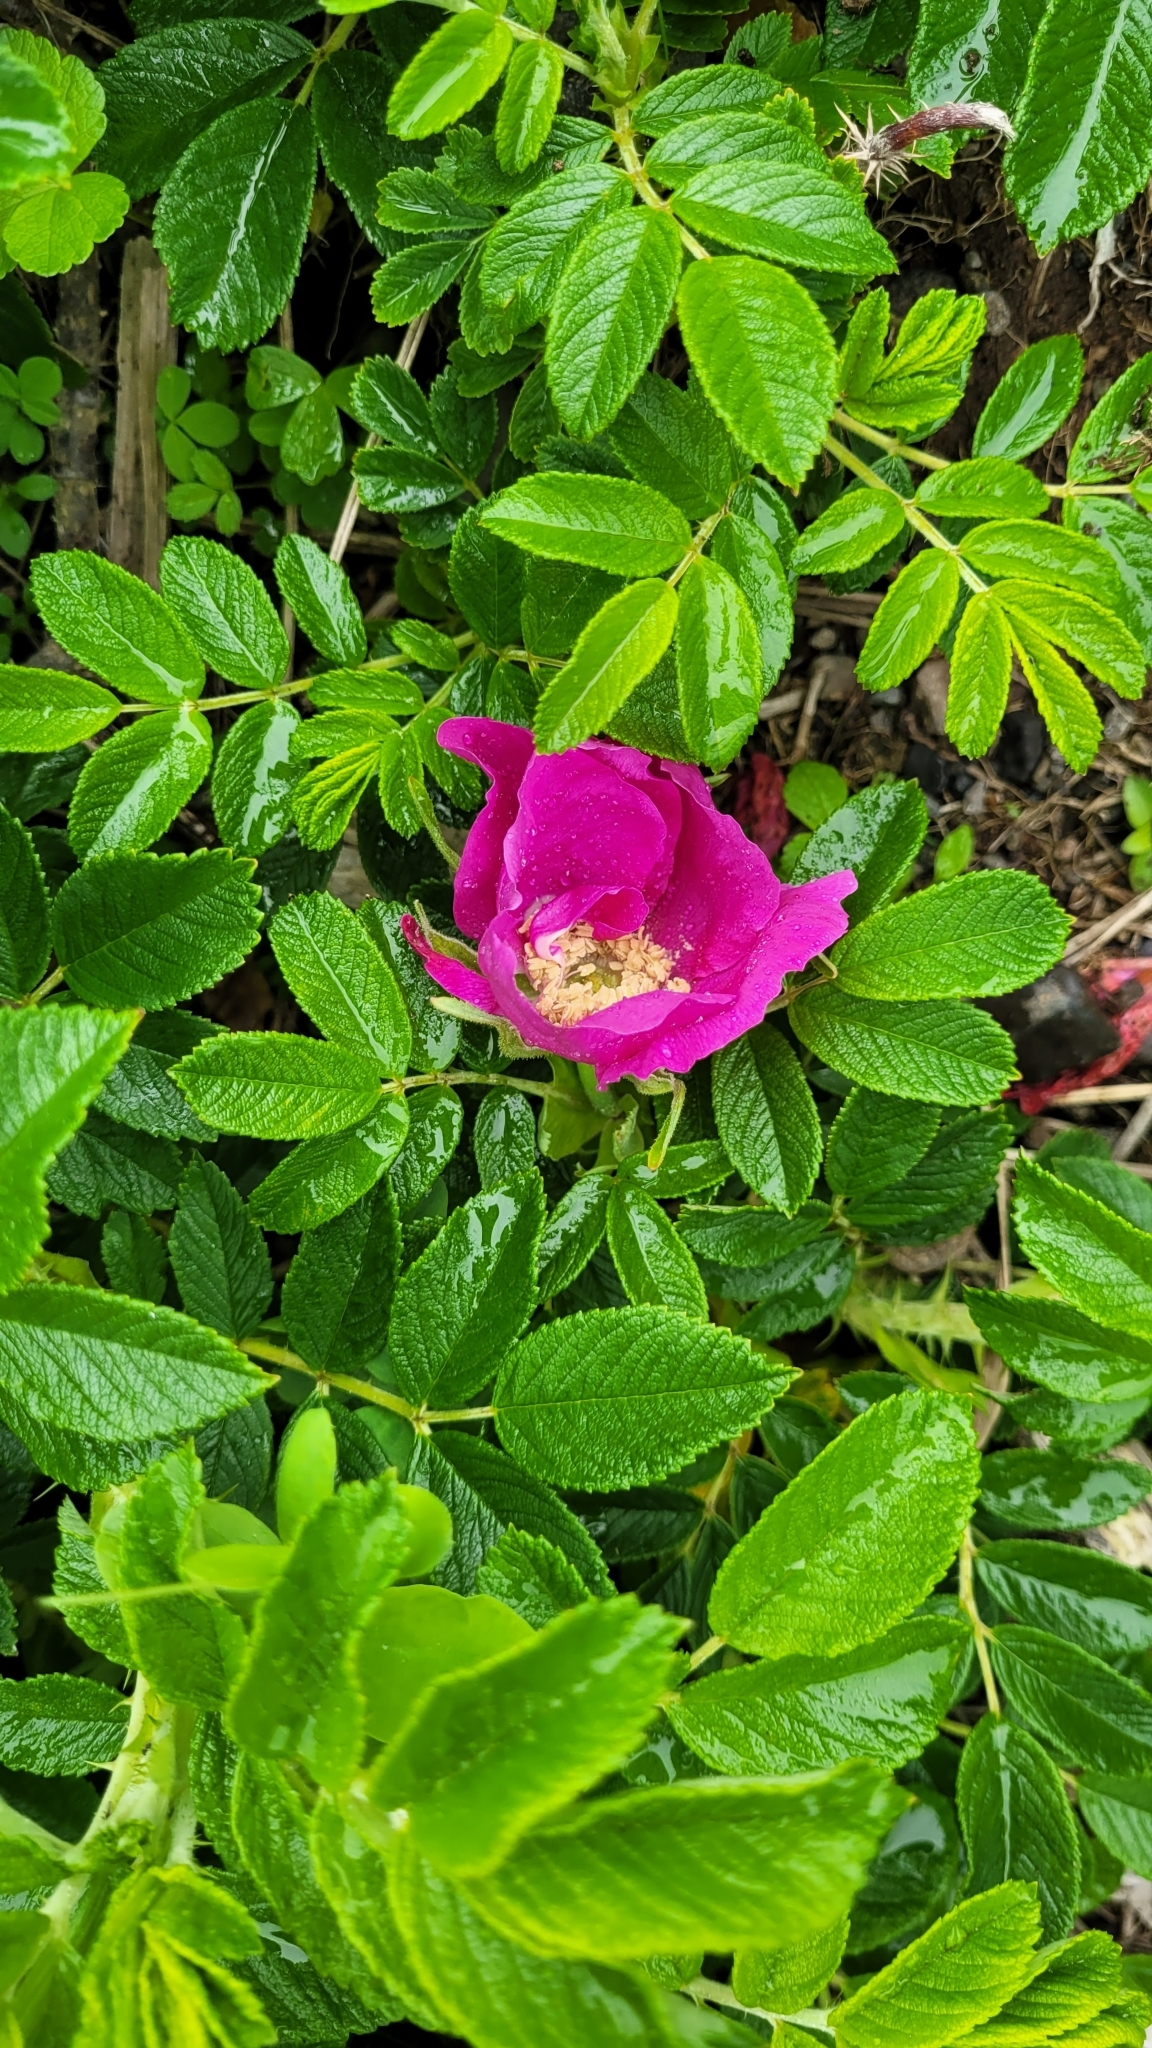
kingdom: Plantae
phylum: Tracheophyta
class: Magnoliopsida
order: Rosales
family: Rosaceae
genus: Rosa
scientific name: Rosa rugosa
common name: Japanese rose
